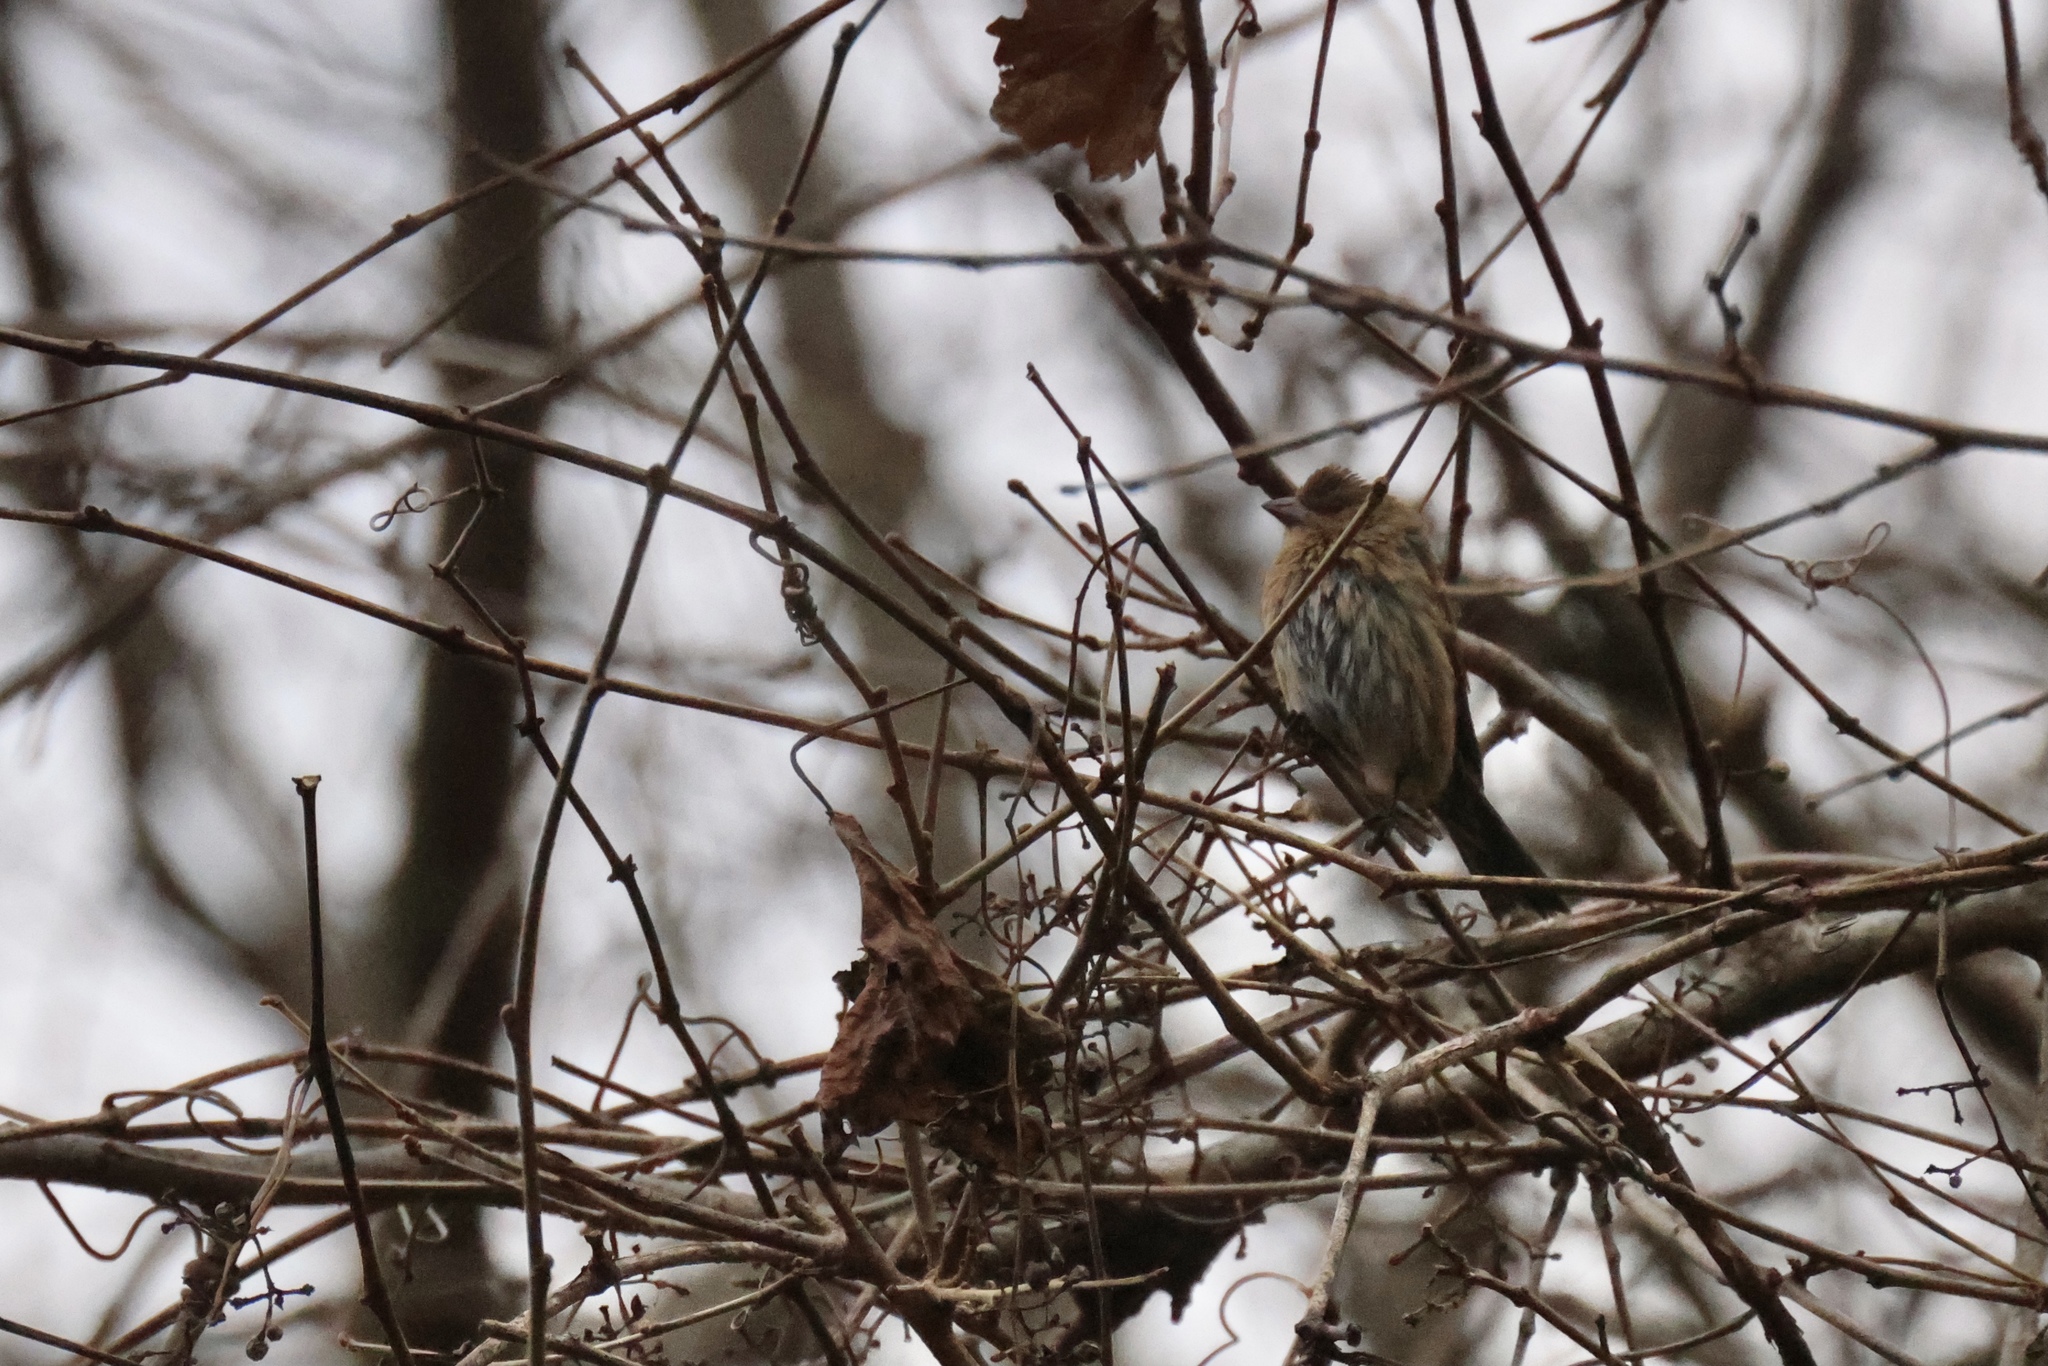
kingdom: Animalia
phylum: Chordata
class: Aves
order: Passeriformes
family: Cardinalidae
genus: Passerina
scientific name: Passerina cyanea
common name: Indigo bunting
